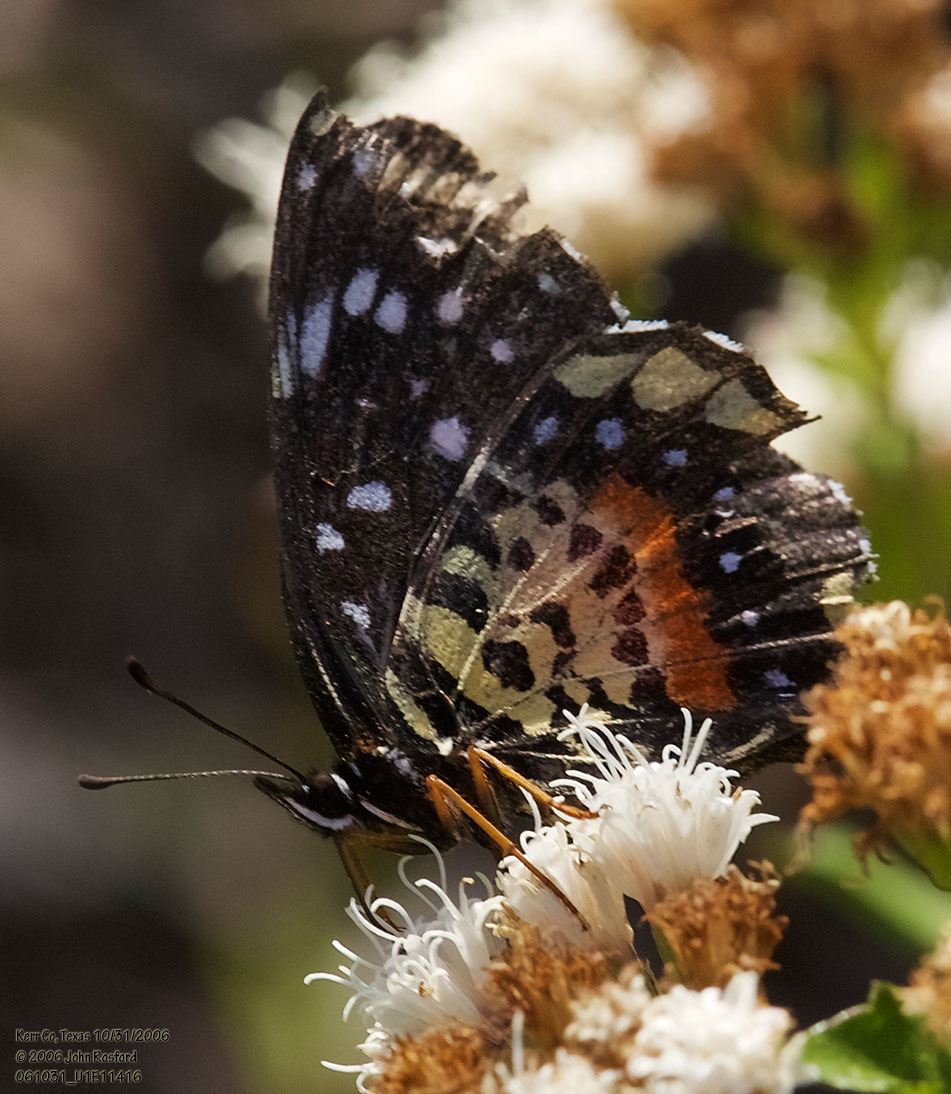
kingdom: Animalia
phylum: Arthropoda
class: Insecta
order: Lepidoptera
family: Nymphalidae
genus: Chlosyne
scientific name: Chlosyne janais
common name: Crimson patch
